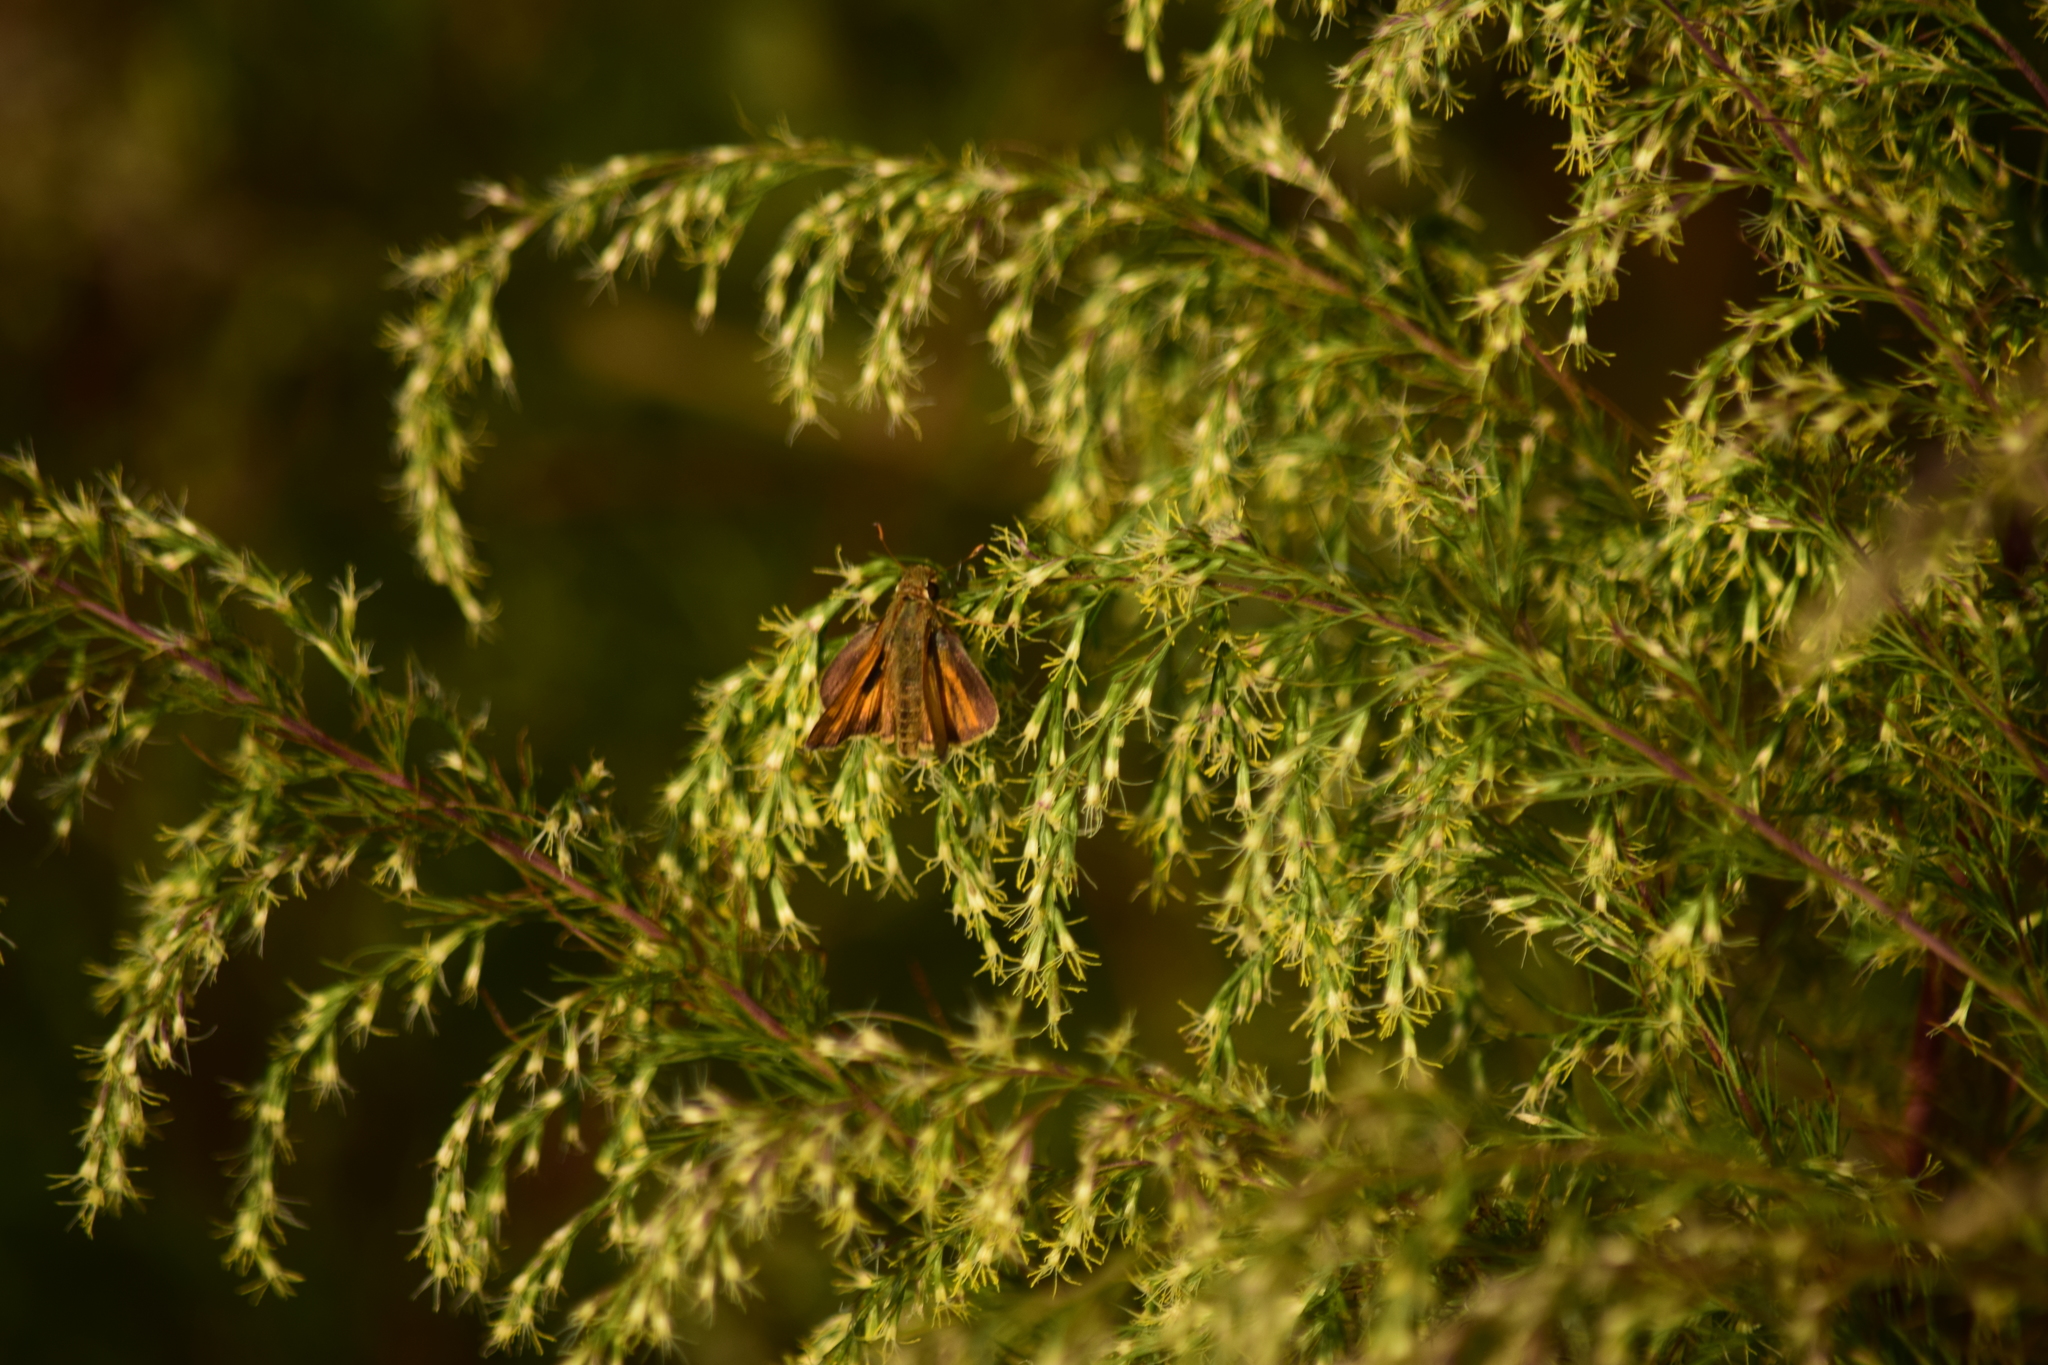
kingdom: Animalia
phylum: Arthropoda
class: Insecta
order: Lepidoptera
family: Hesperiidae
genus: Atalopedes
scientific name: Atalopedes
